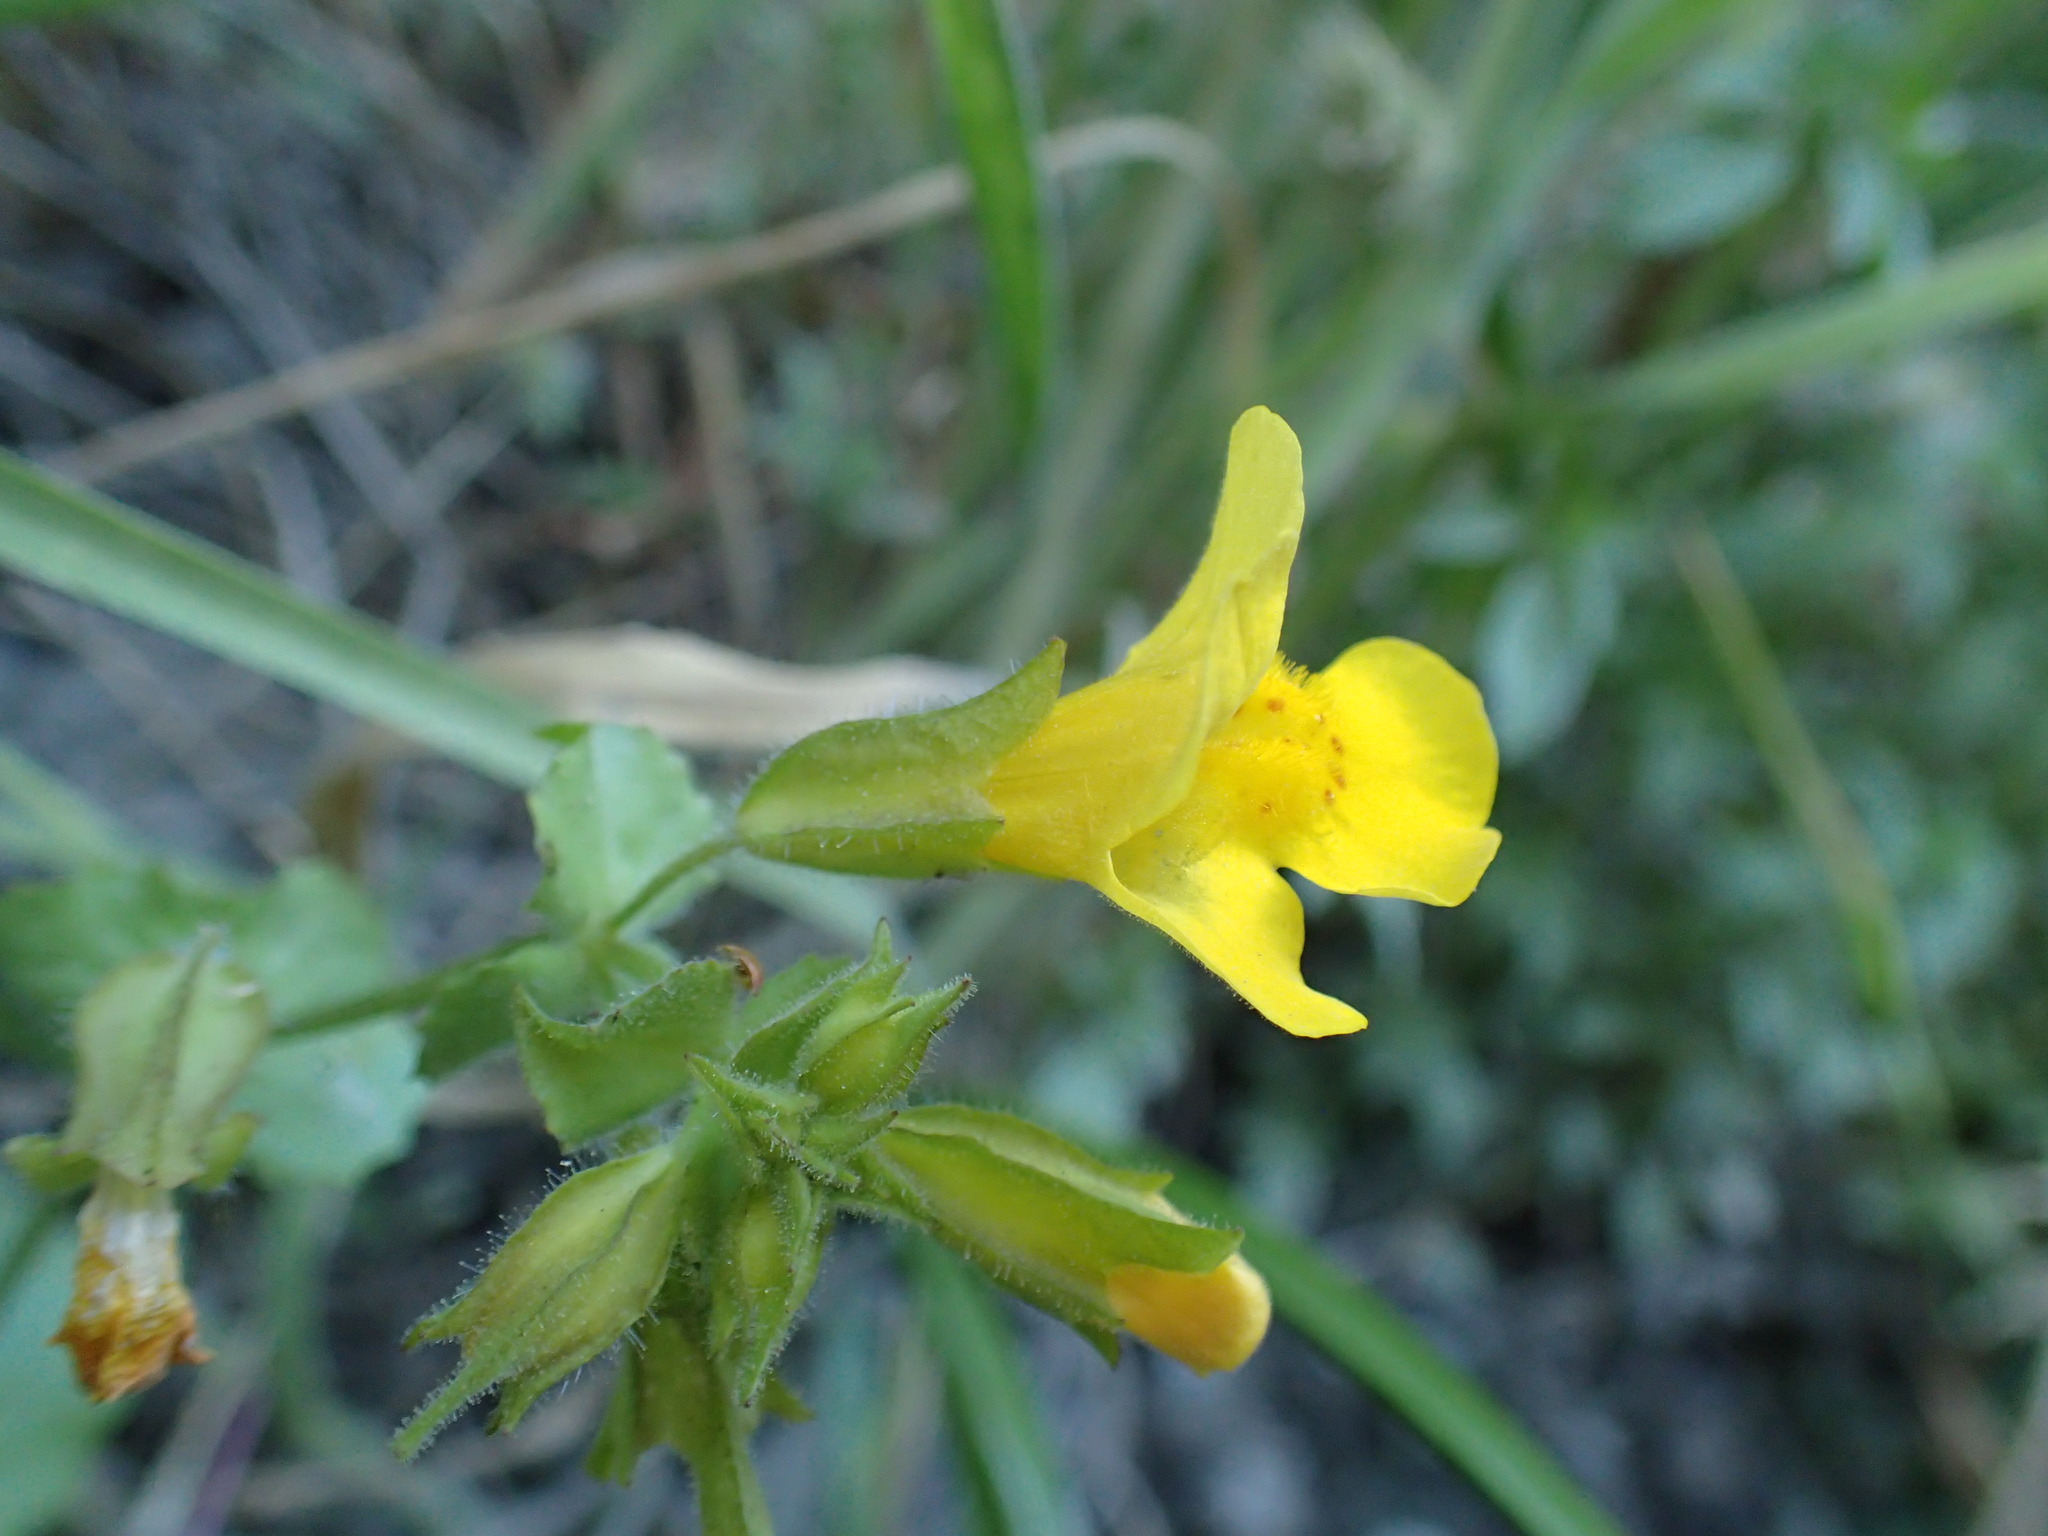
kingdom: Plantae
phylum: Tracheophyta
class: Magnoliopsida
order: Lamiales
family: Phrymaceae
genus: Erythranthe
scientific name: Erythranthe guttata
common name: Monkeyflower
